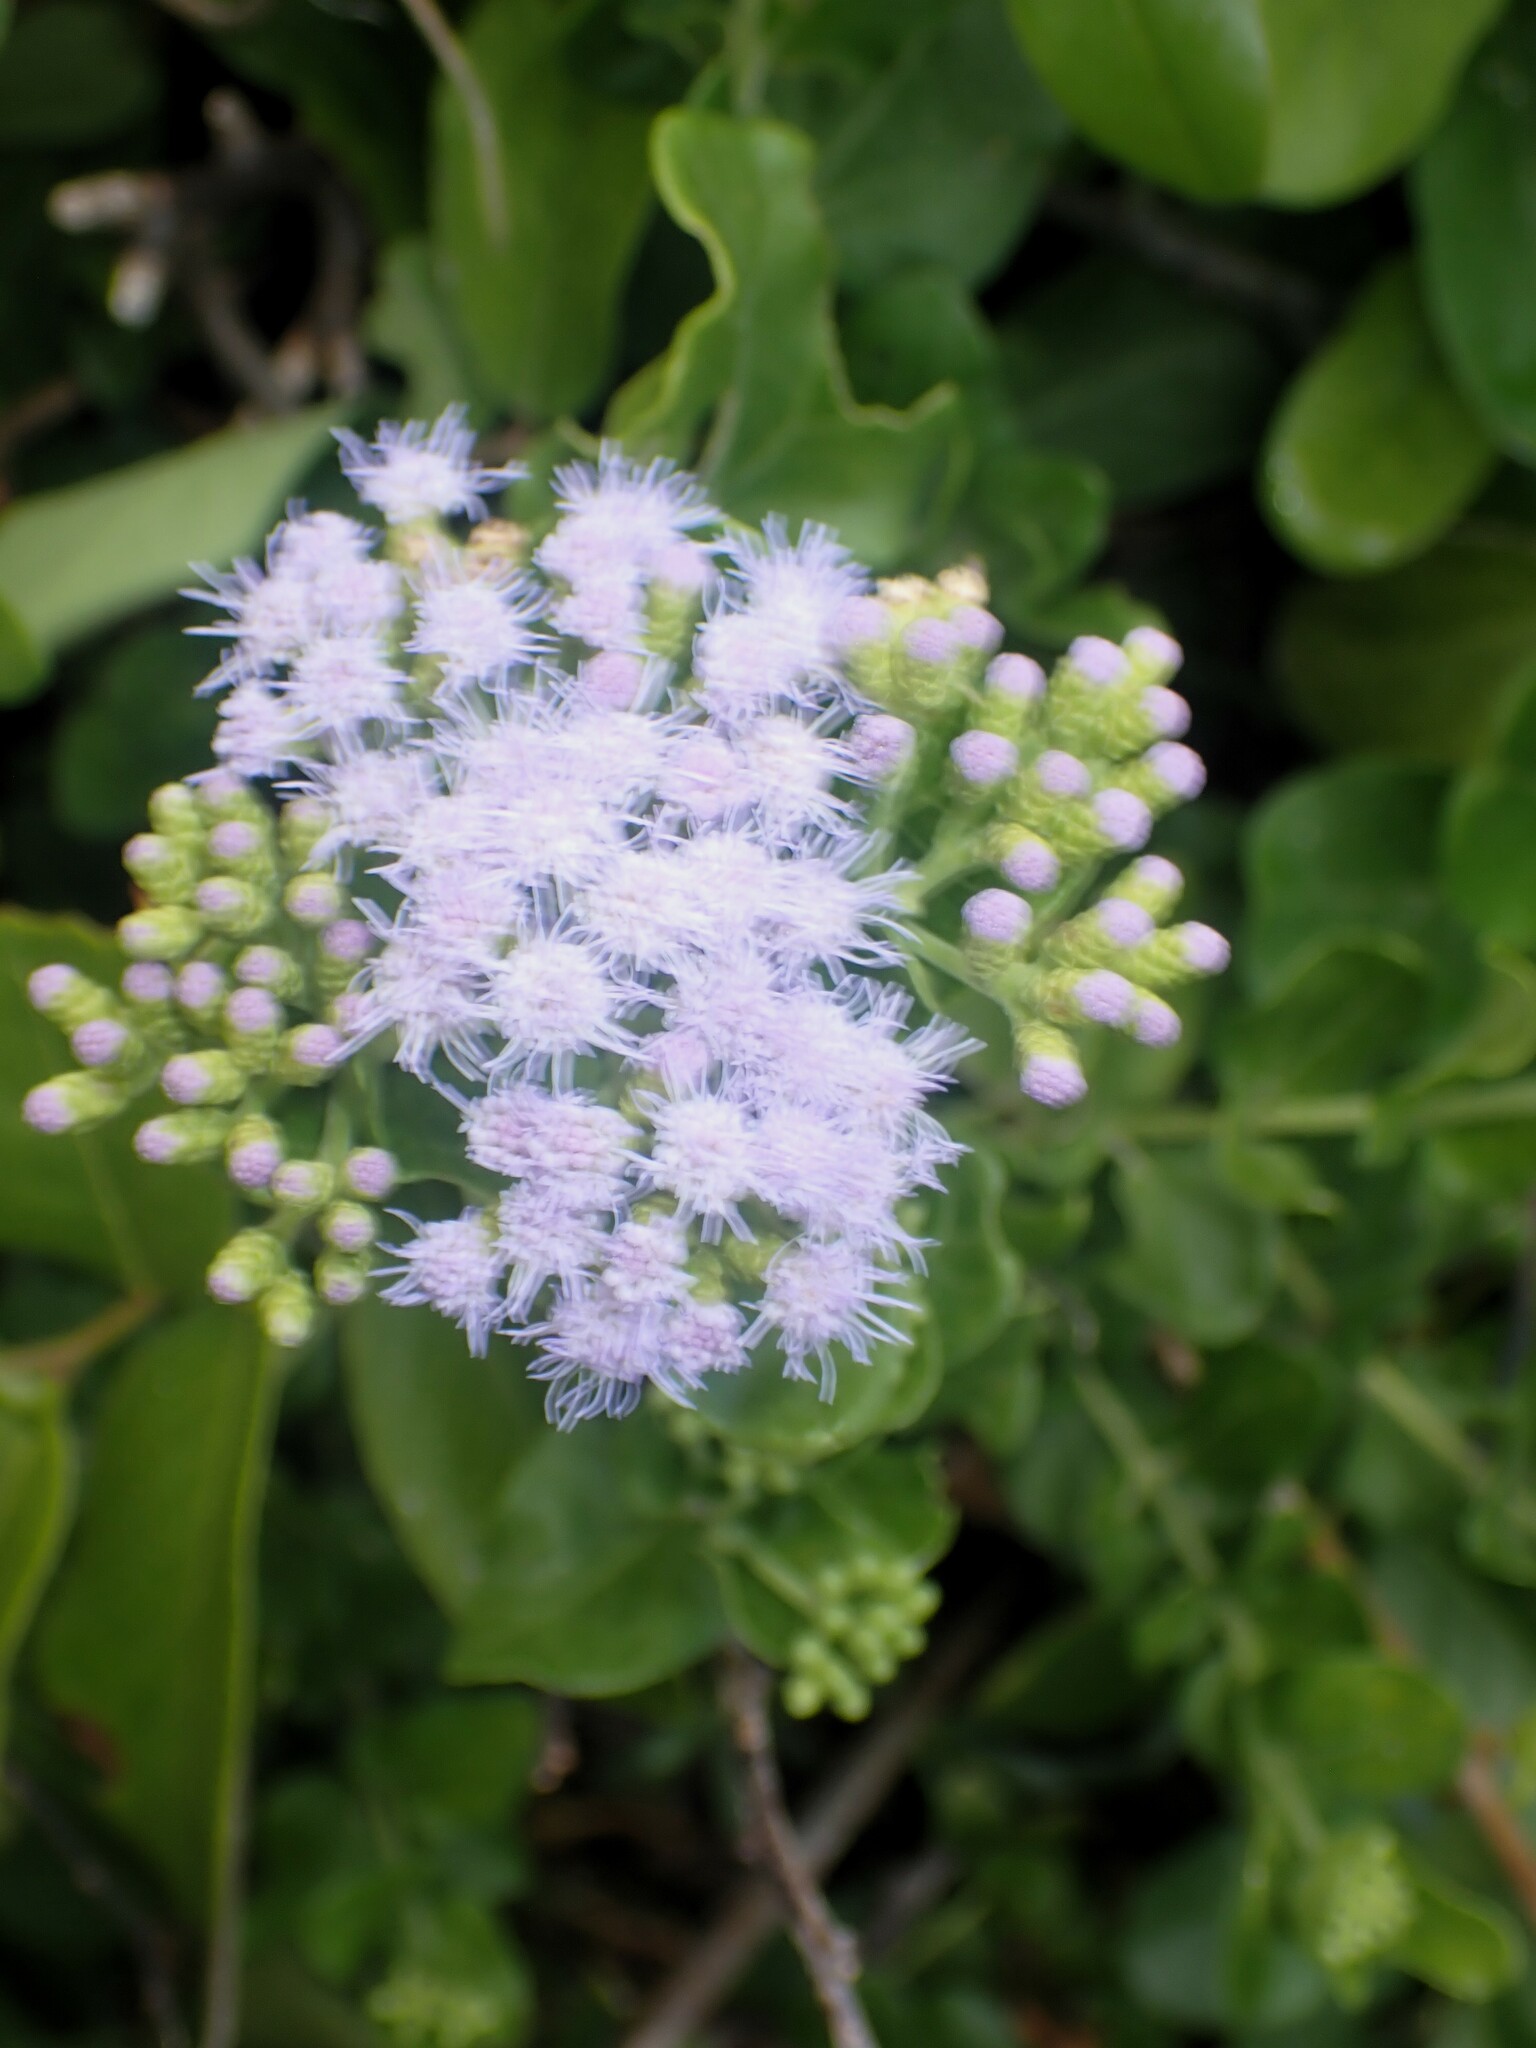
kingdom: Plantae
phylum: Tracheophyta
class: Magnoliopsida
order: Asterales
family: Asteraceae
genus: Chromolaena
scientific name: Chromolaena integrifolia
